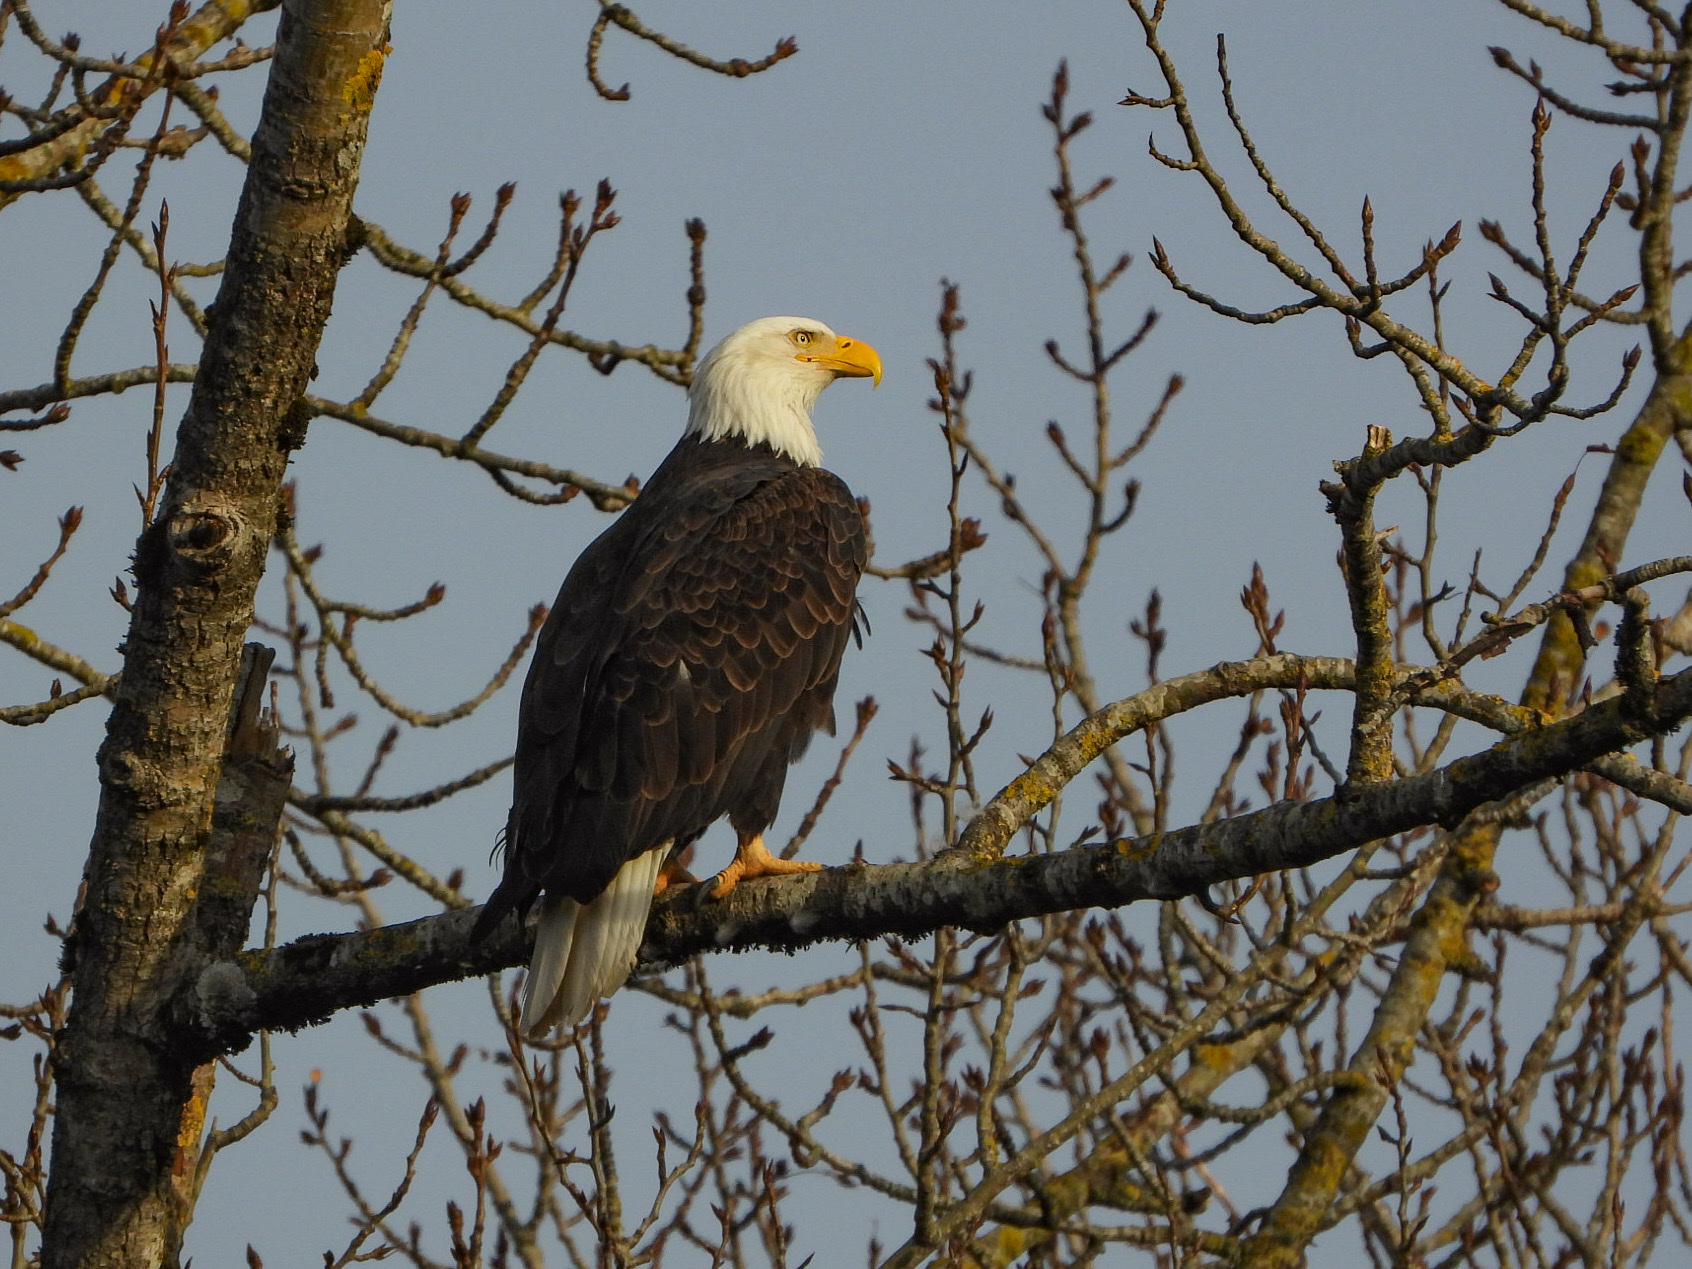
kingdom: Animalia
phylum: Chordata
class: Aves
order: Accipitriformes
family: Accipitridae
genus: Haliaeetus
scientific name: Haliaeetus leucocephalus
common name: Bald eagle
